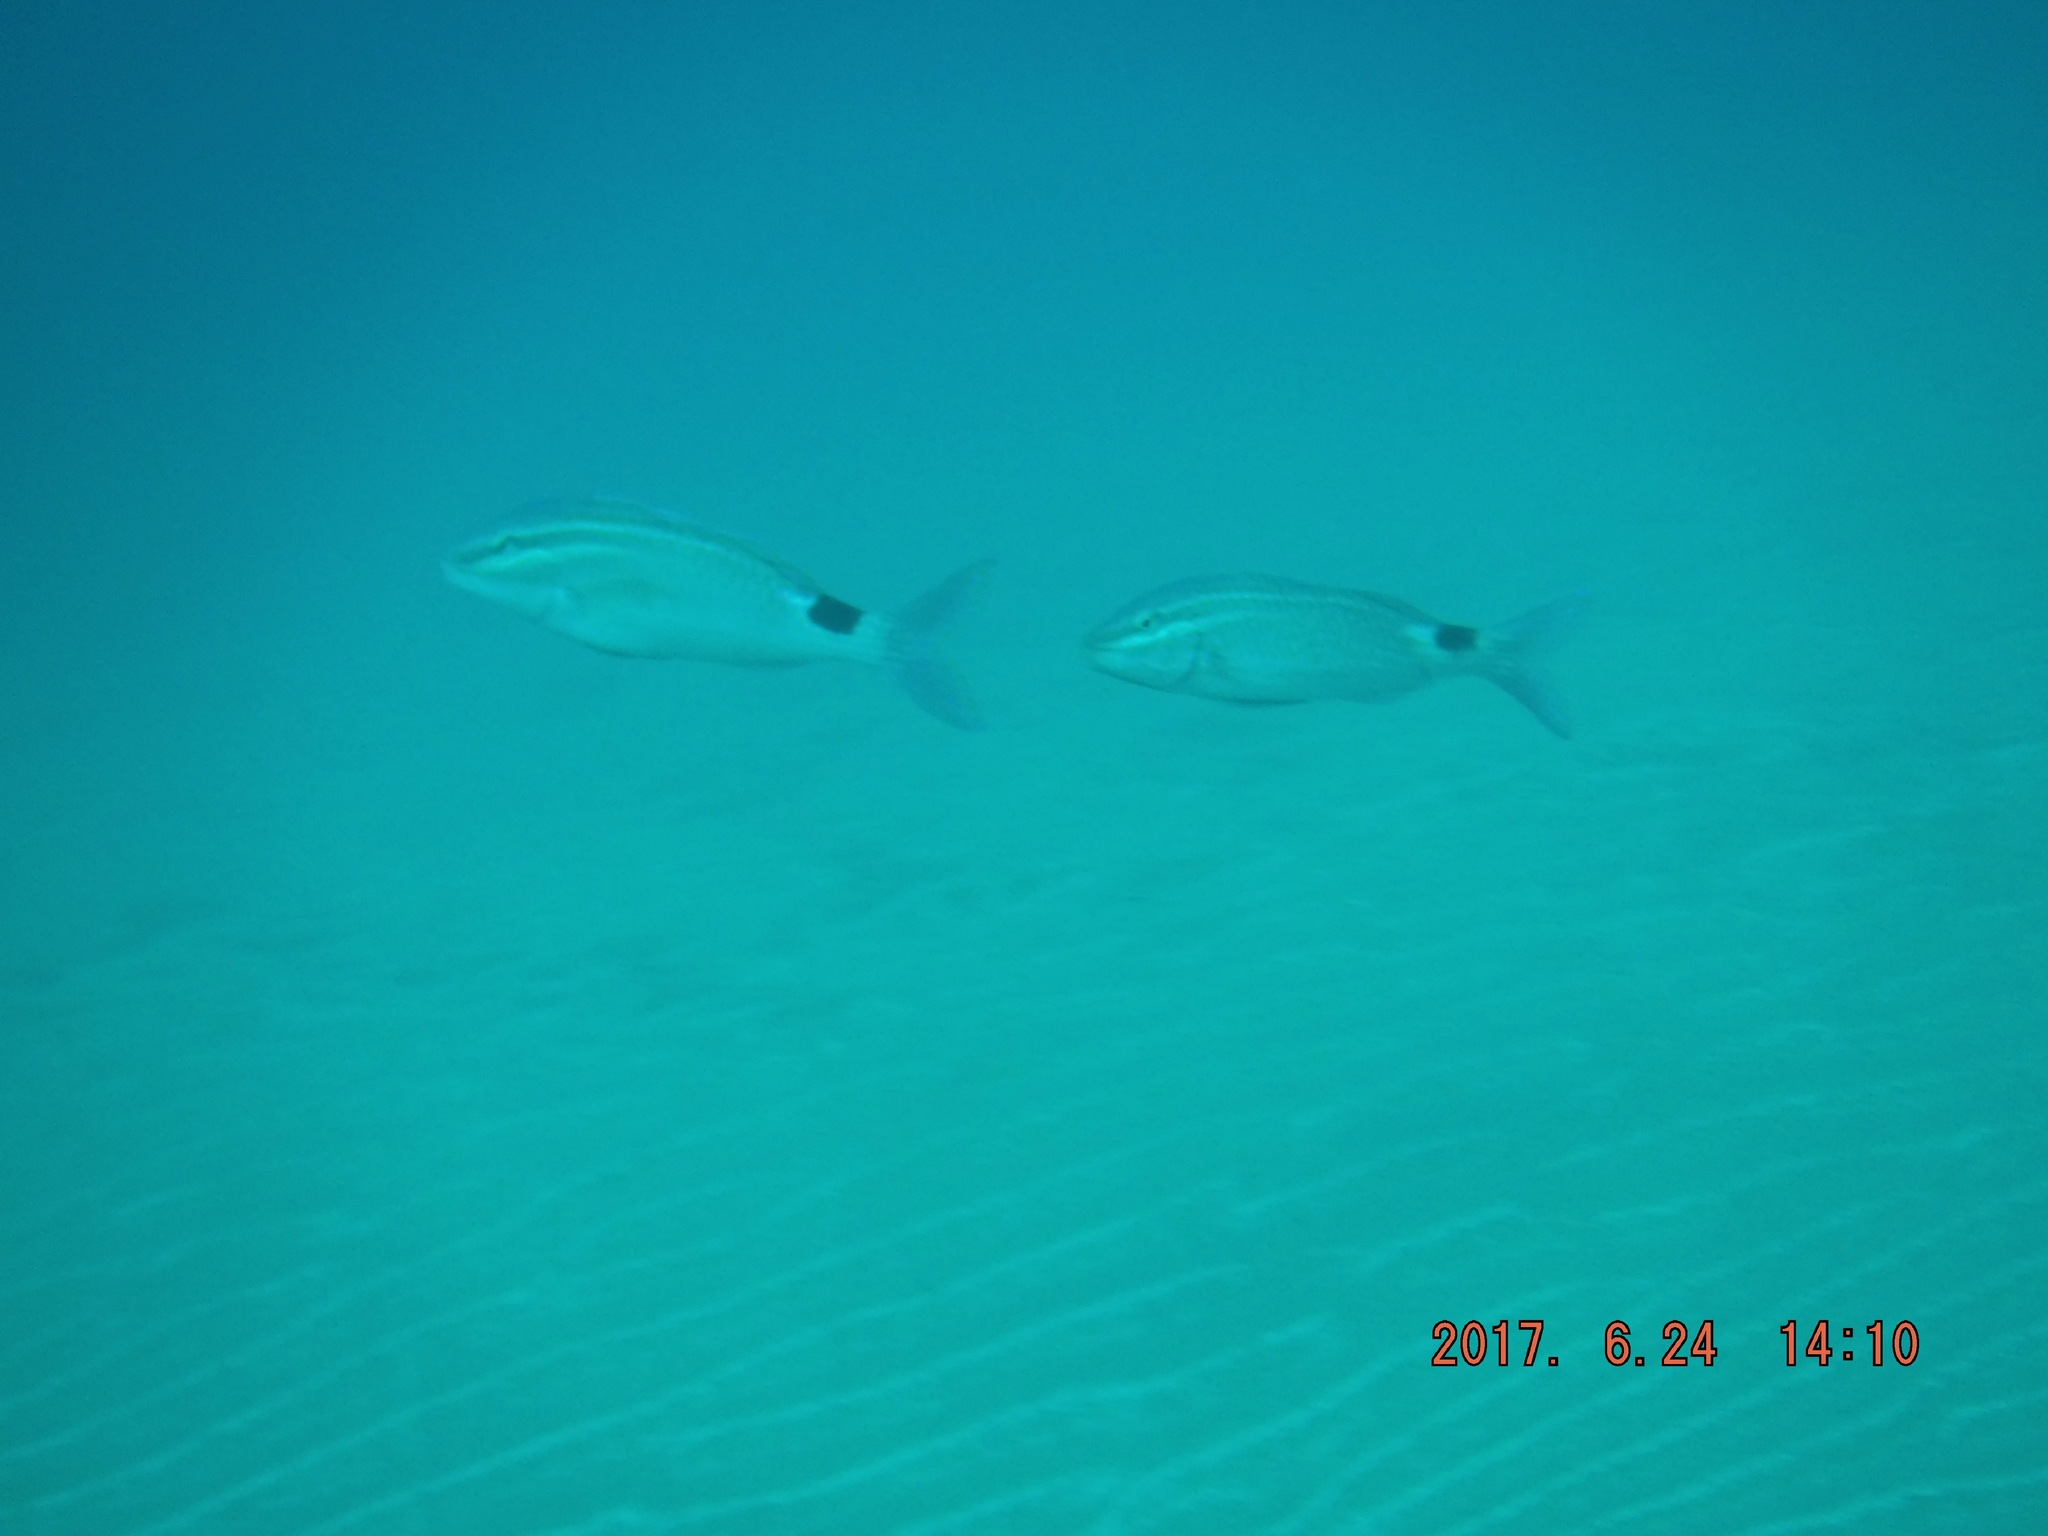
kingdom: Animalia
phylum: Chordata
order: Perciformes
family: Mullidae
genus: Parupeneus
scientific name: Parupeneus rubescens
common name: Rosy goatfish
